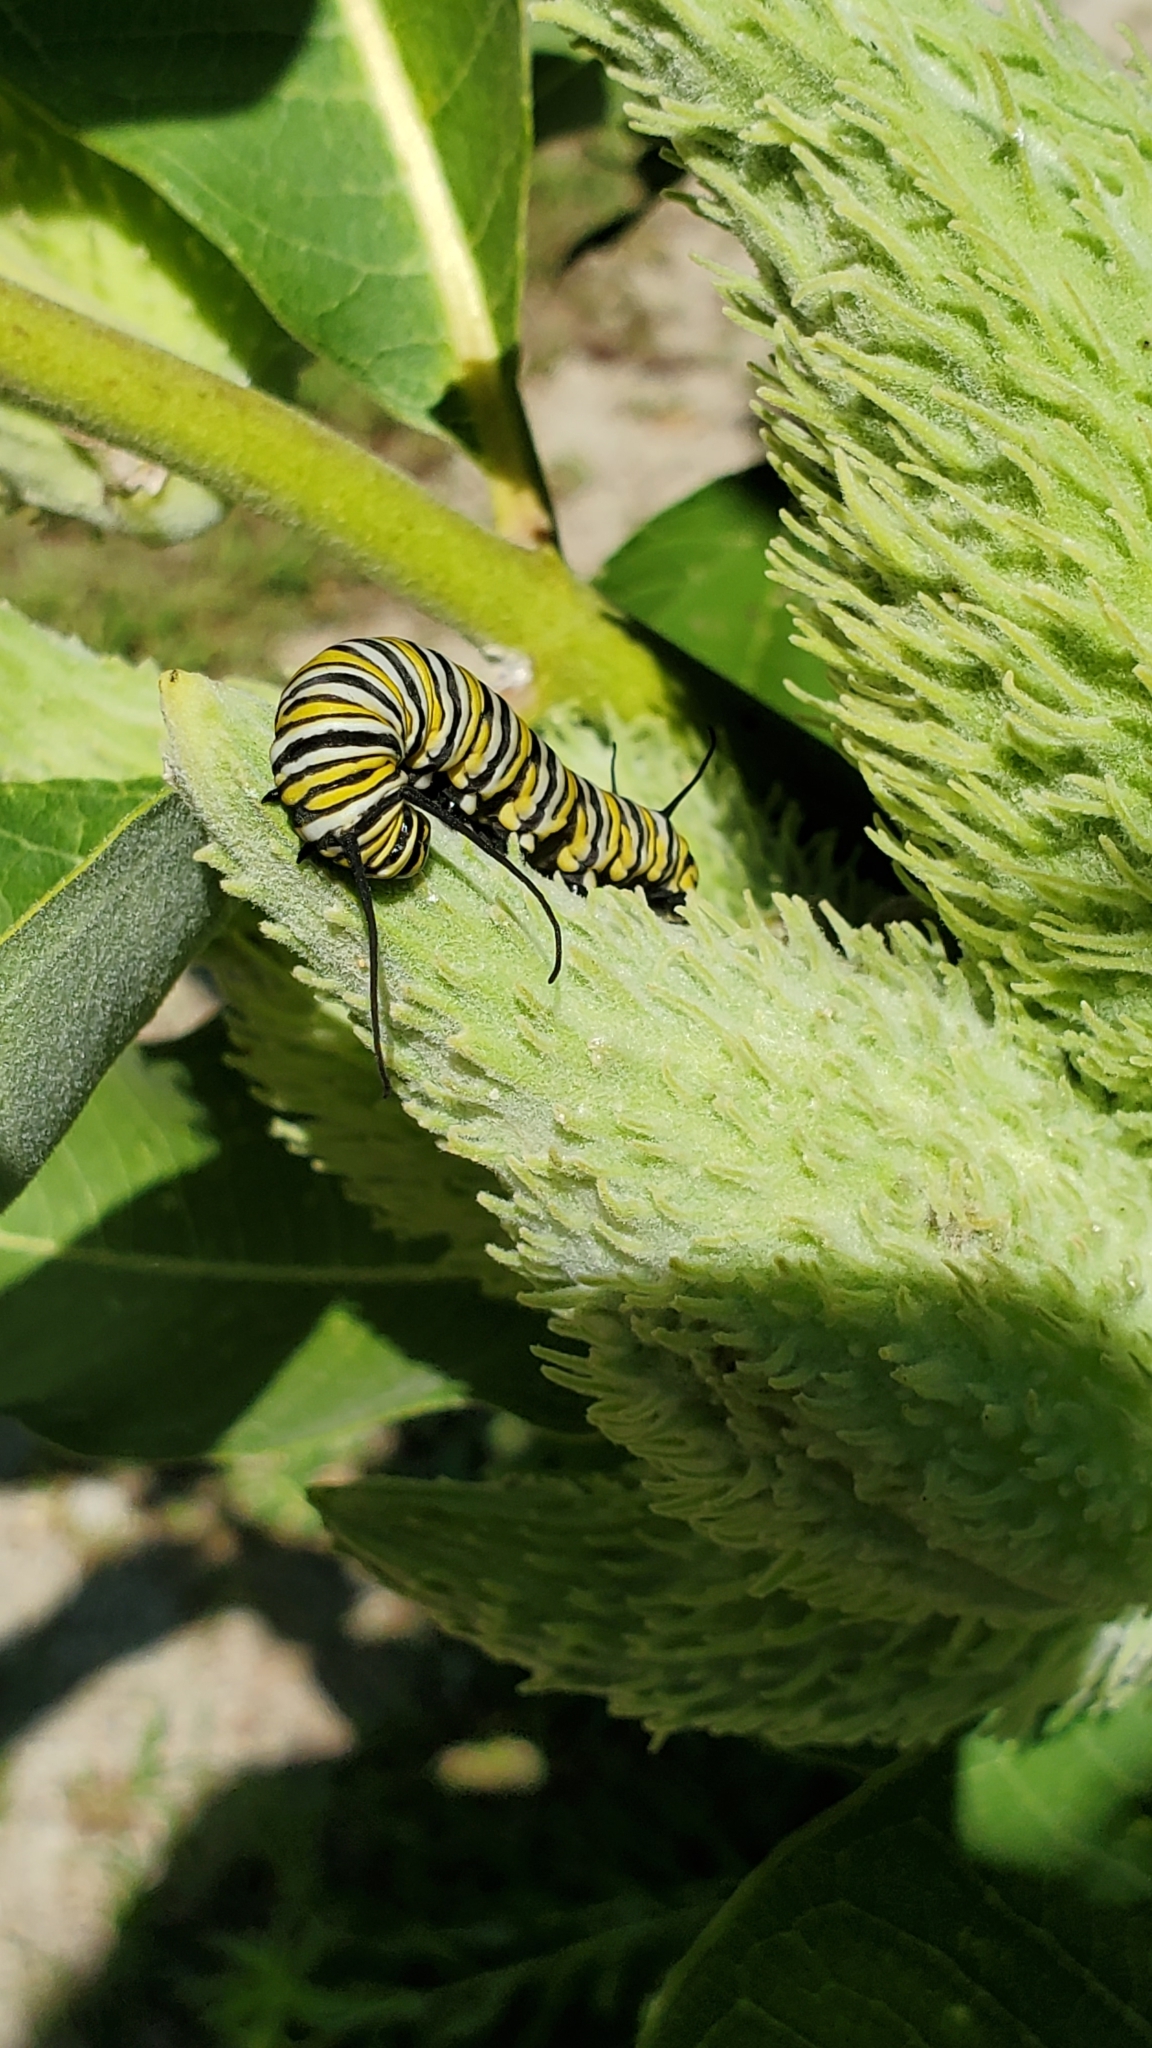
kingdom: Animalia
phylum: Arthropoda
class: Insecta
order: Lepidoptera
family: Nymphalidae
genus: Danaus
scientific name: Danaus plexippus
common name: Monarch
